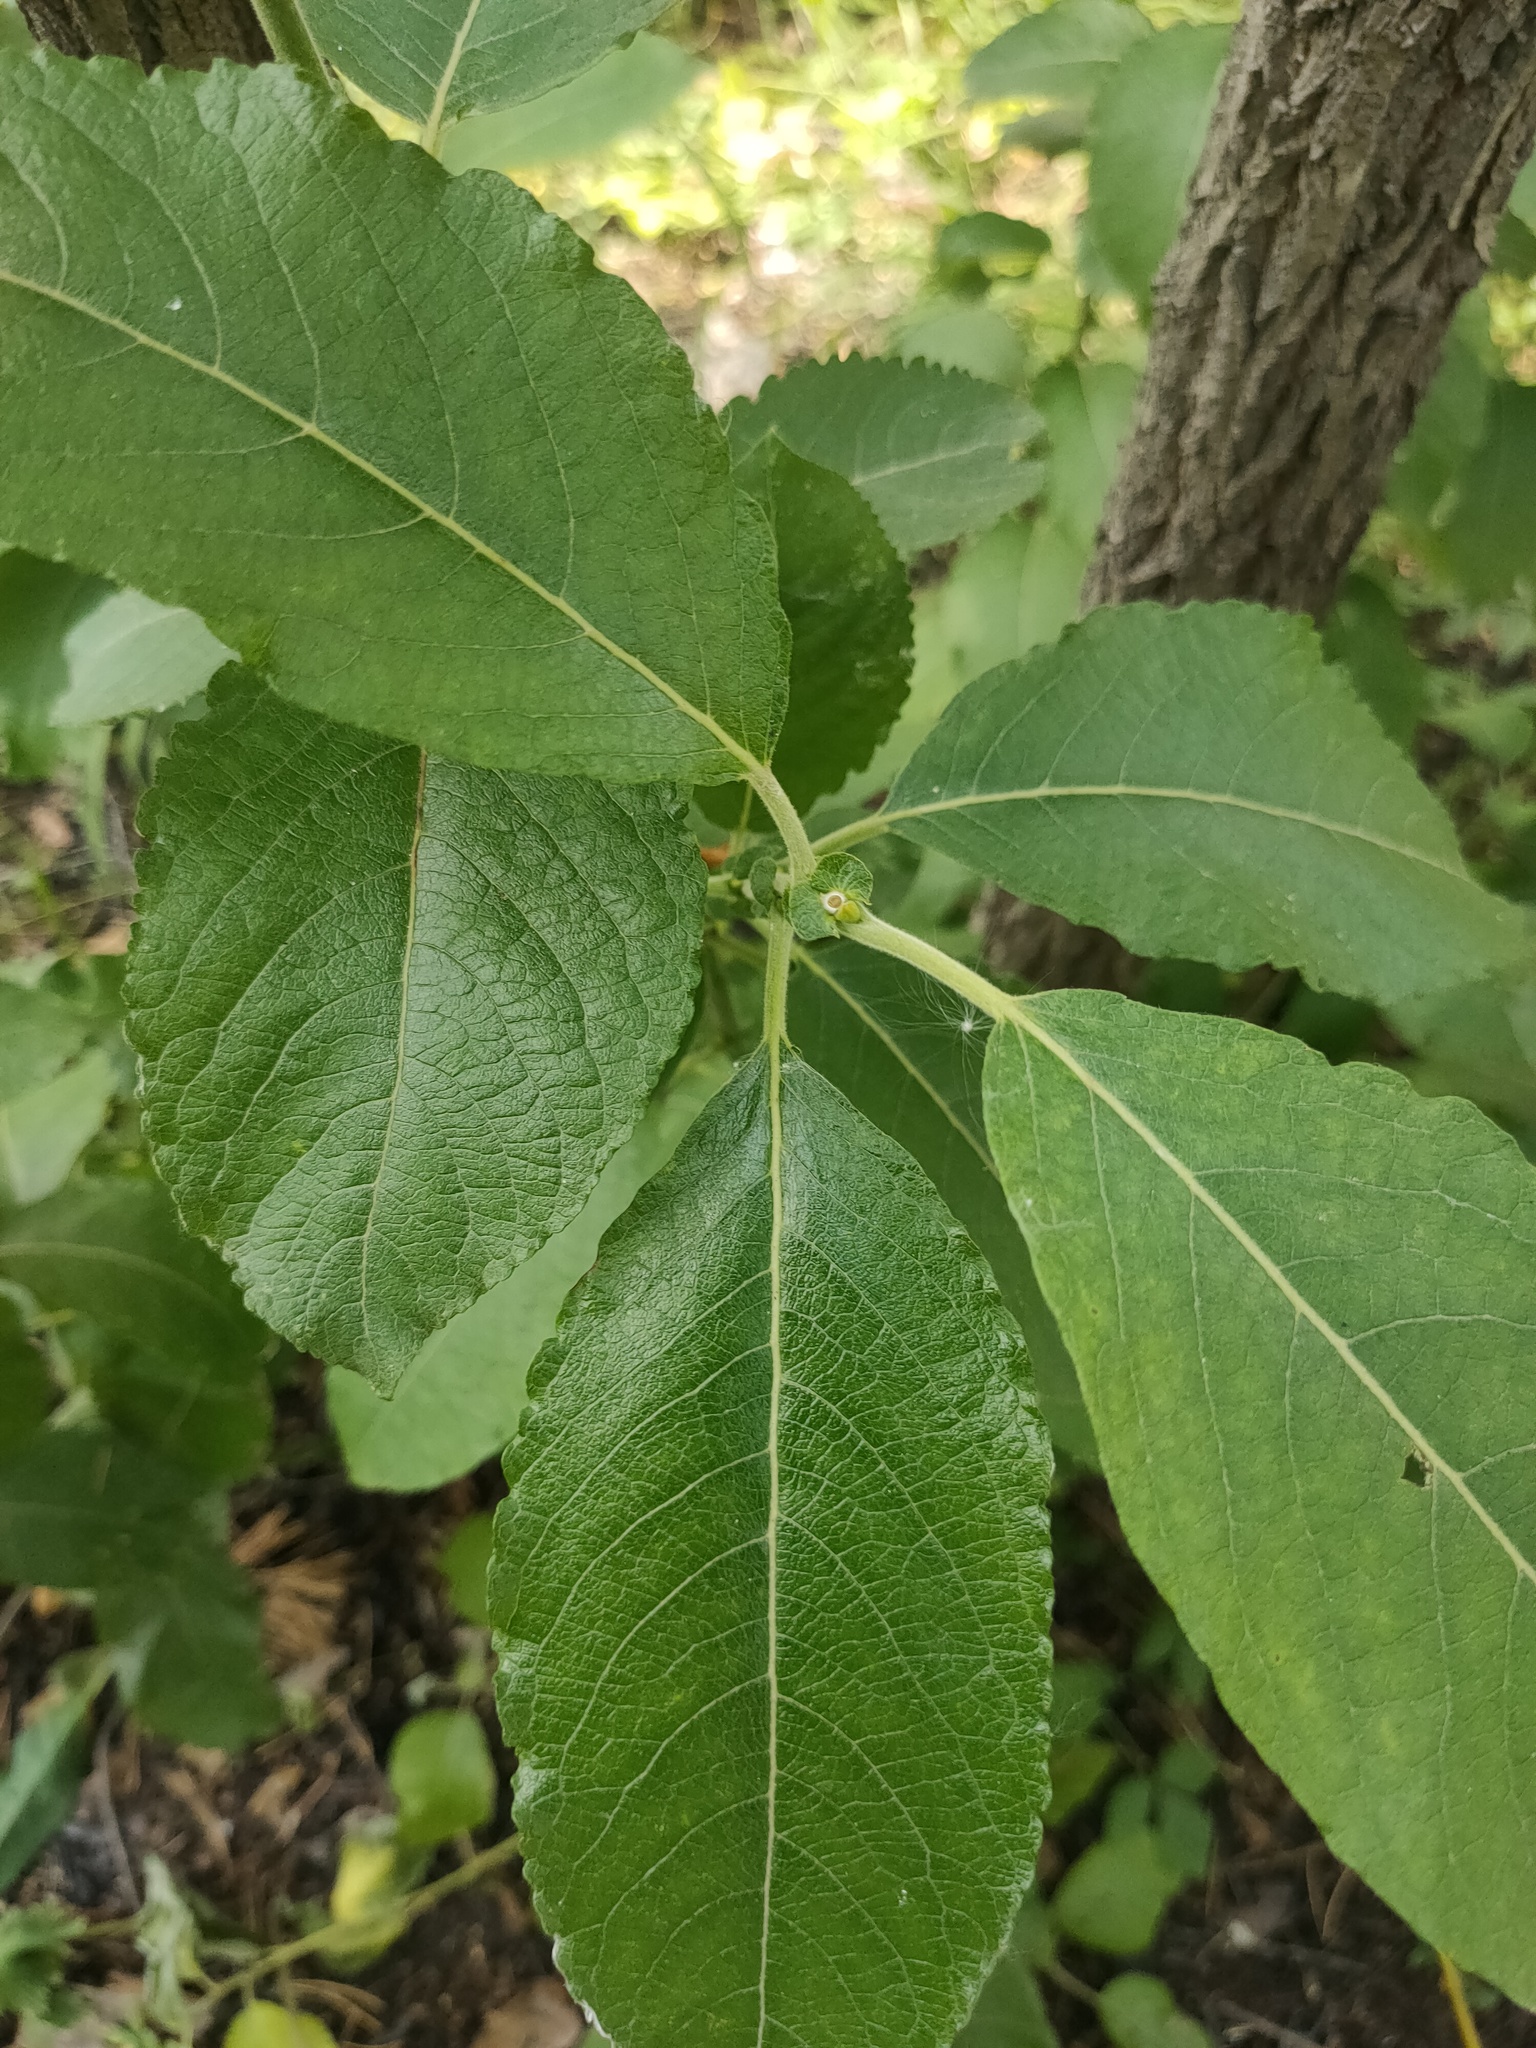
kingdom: Plantae
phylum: Tracheophyta
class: Magnoliopsida
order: Malpighiales
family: Salicaceae
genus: Salix
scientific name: Salix caprea
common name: Goat willow
